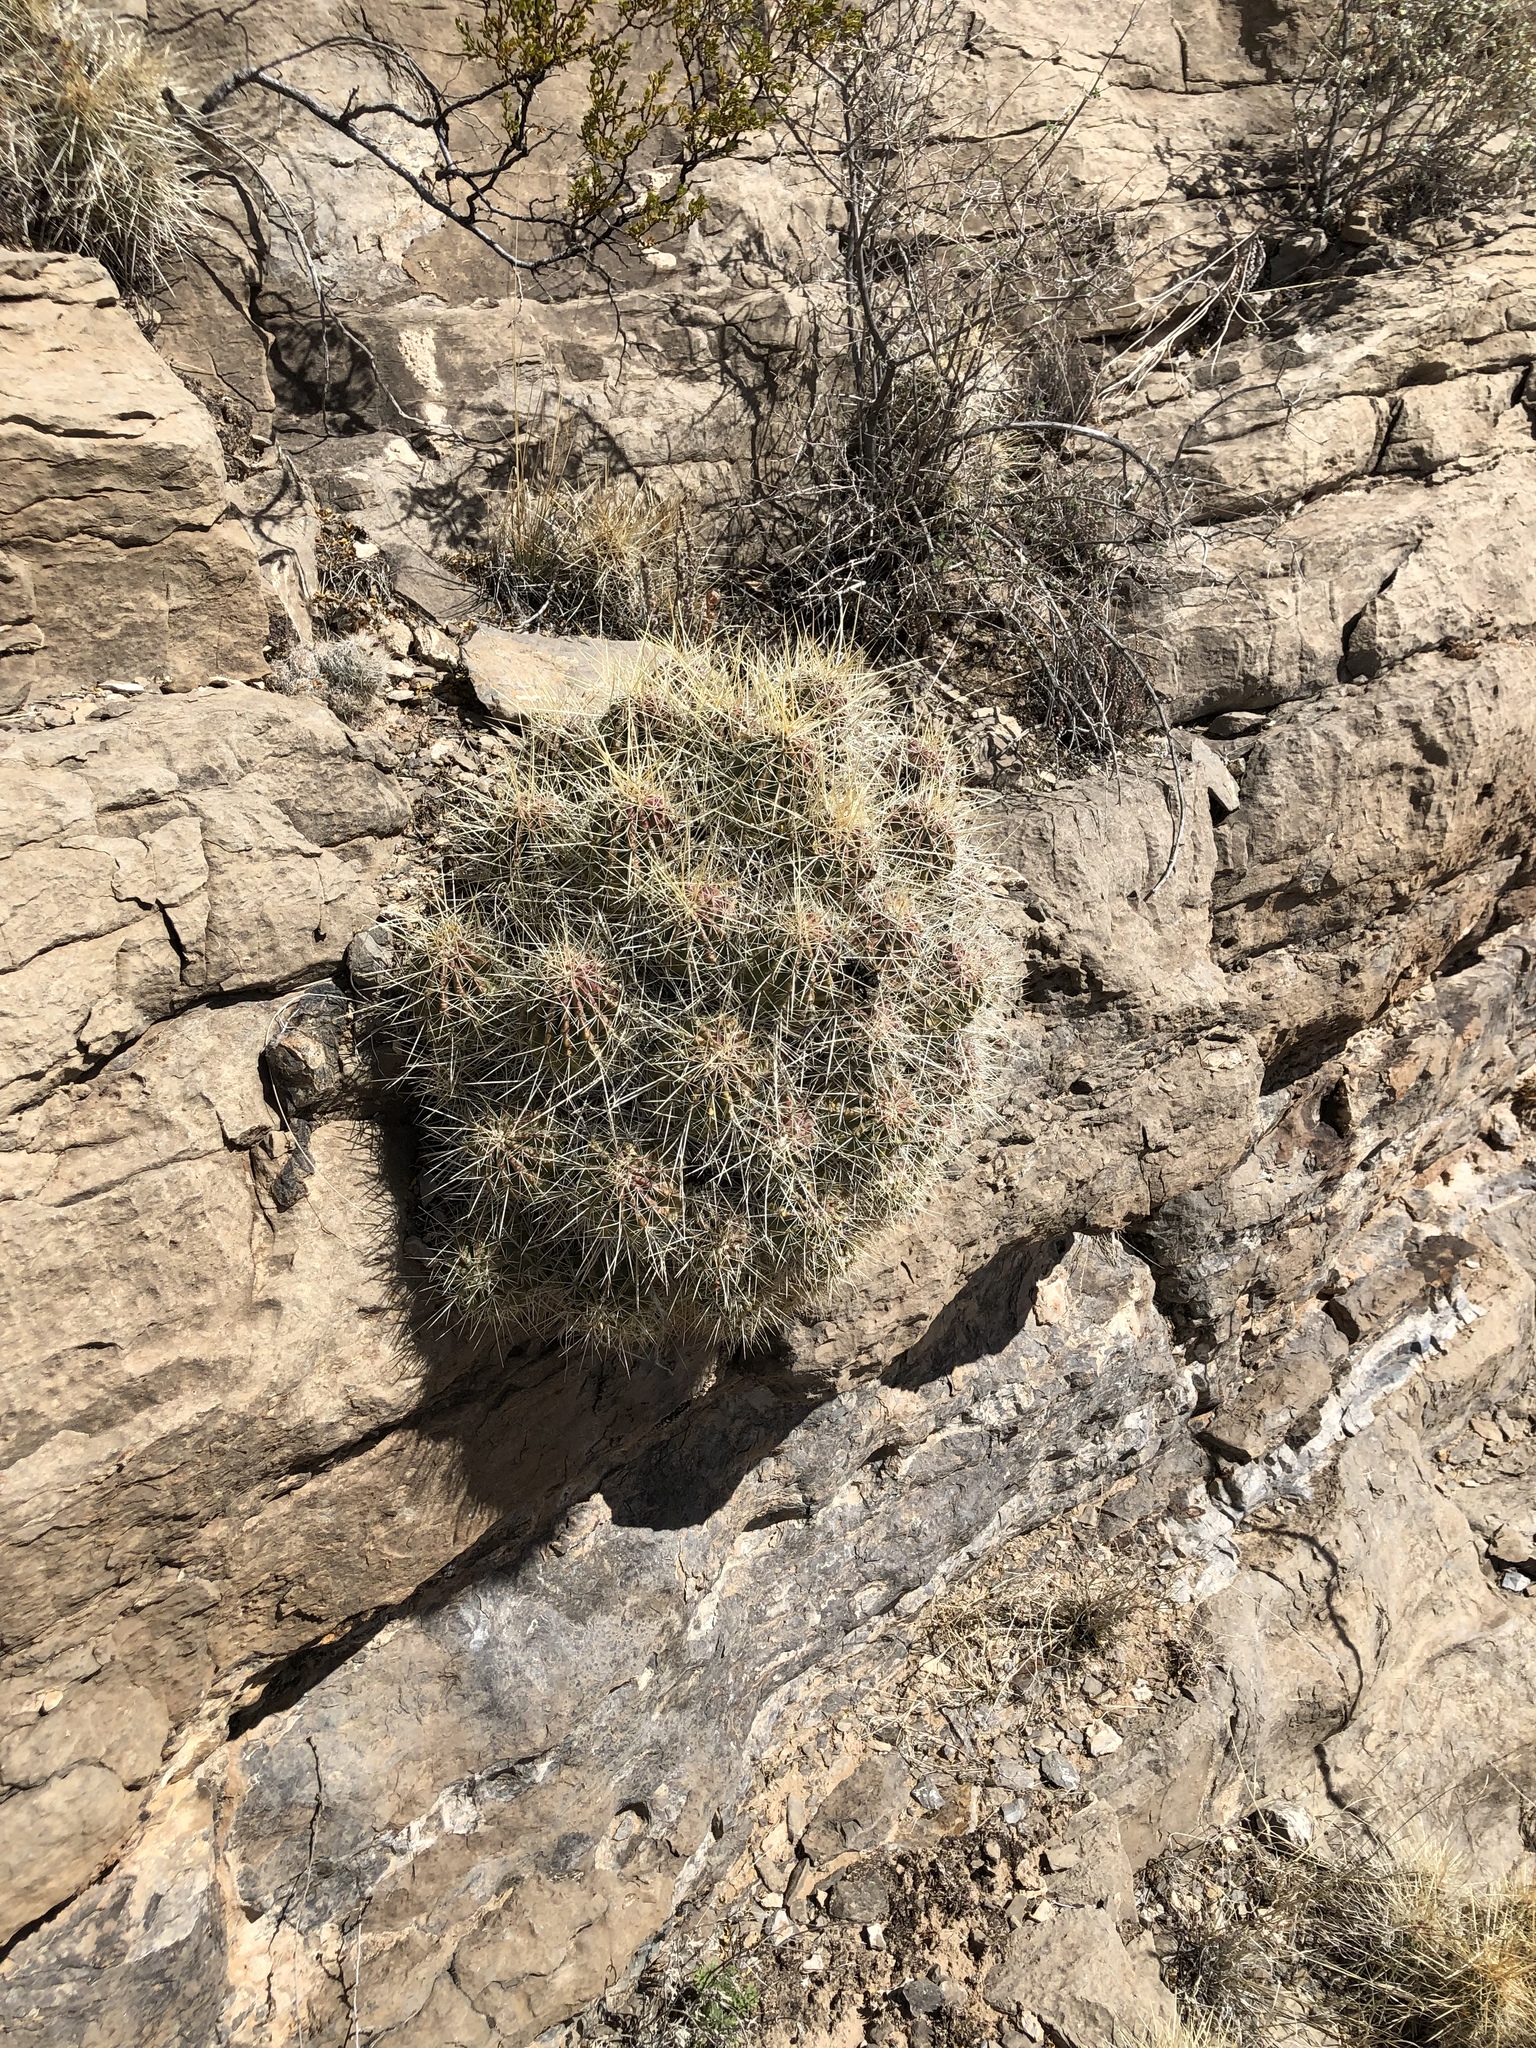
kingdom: Plantae
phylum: Tracheophyta
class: Magnoliopsida
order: Caryophyllales
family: Cactaceae
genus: Echinocereus
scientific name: Echinocereus stramineus
